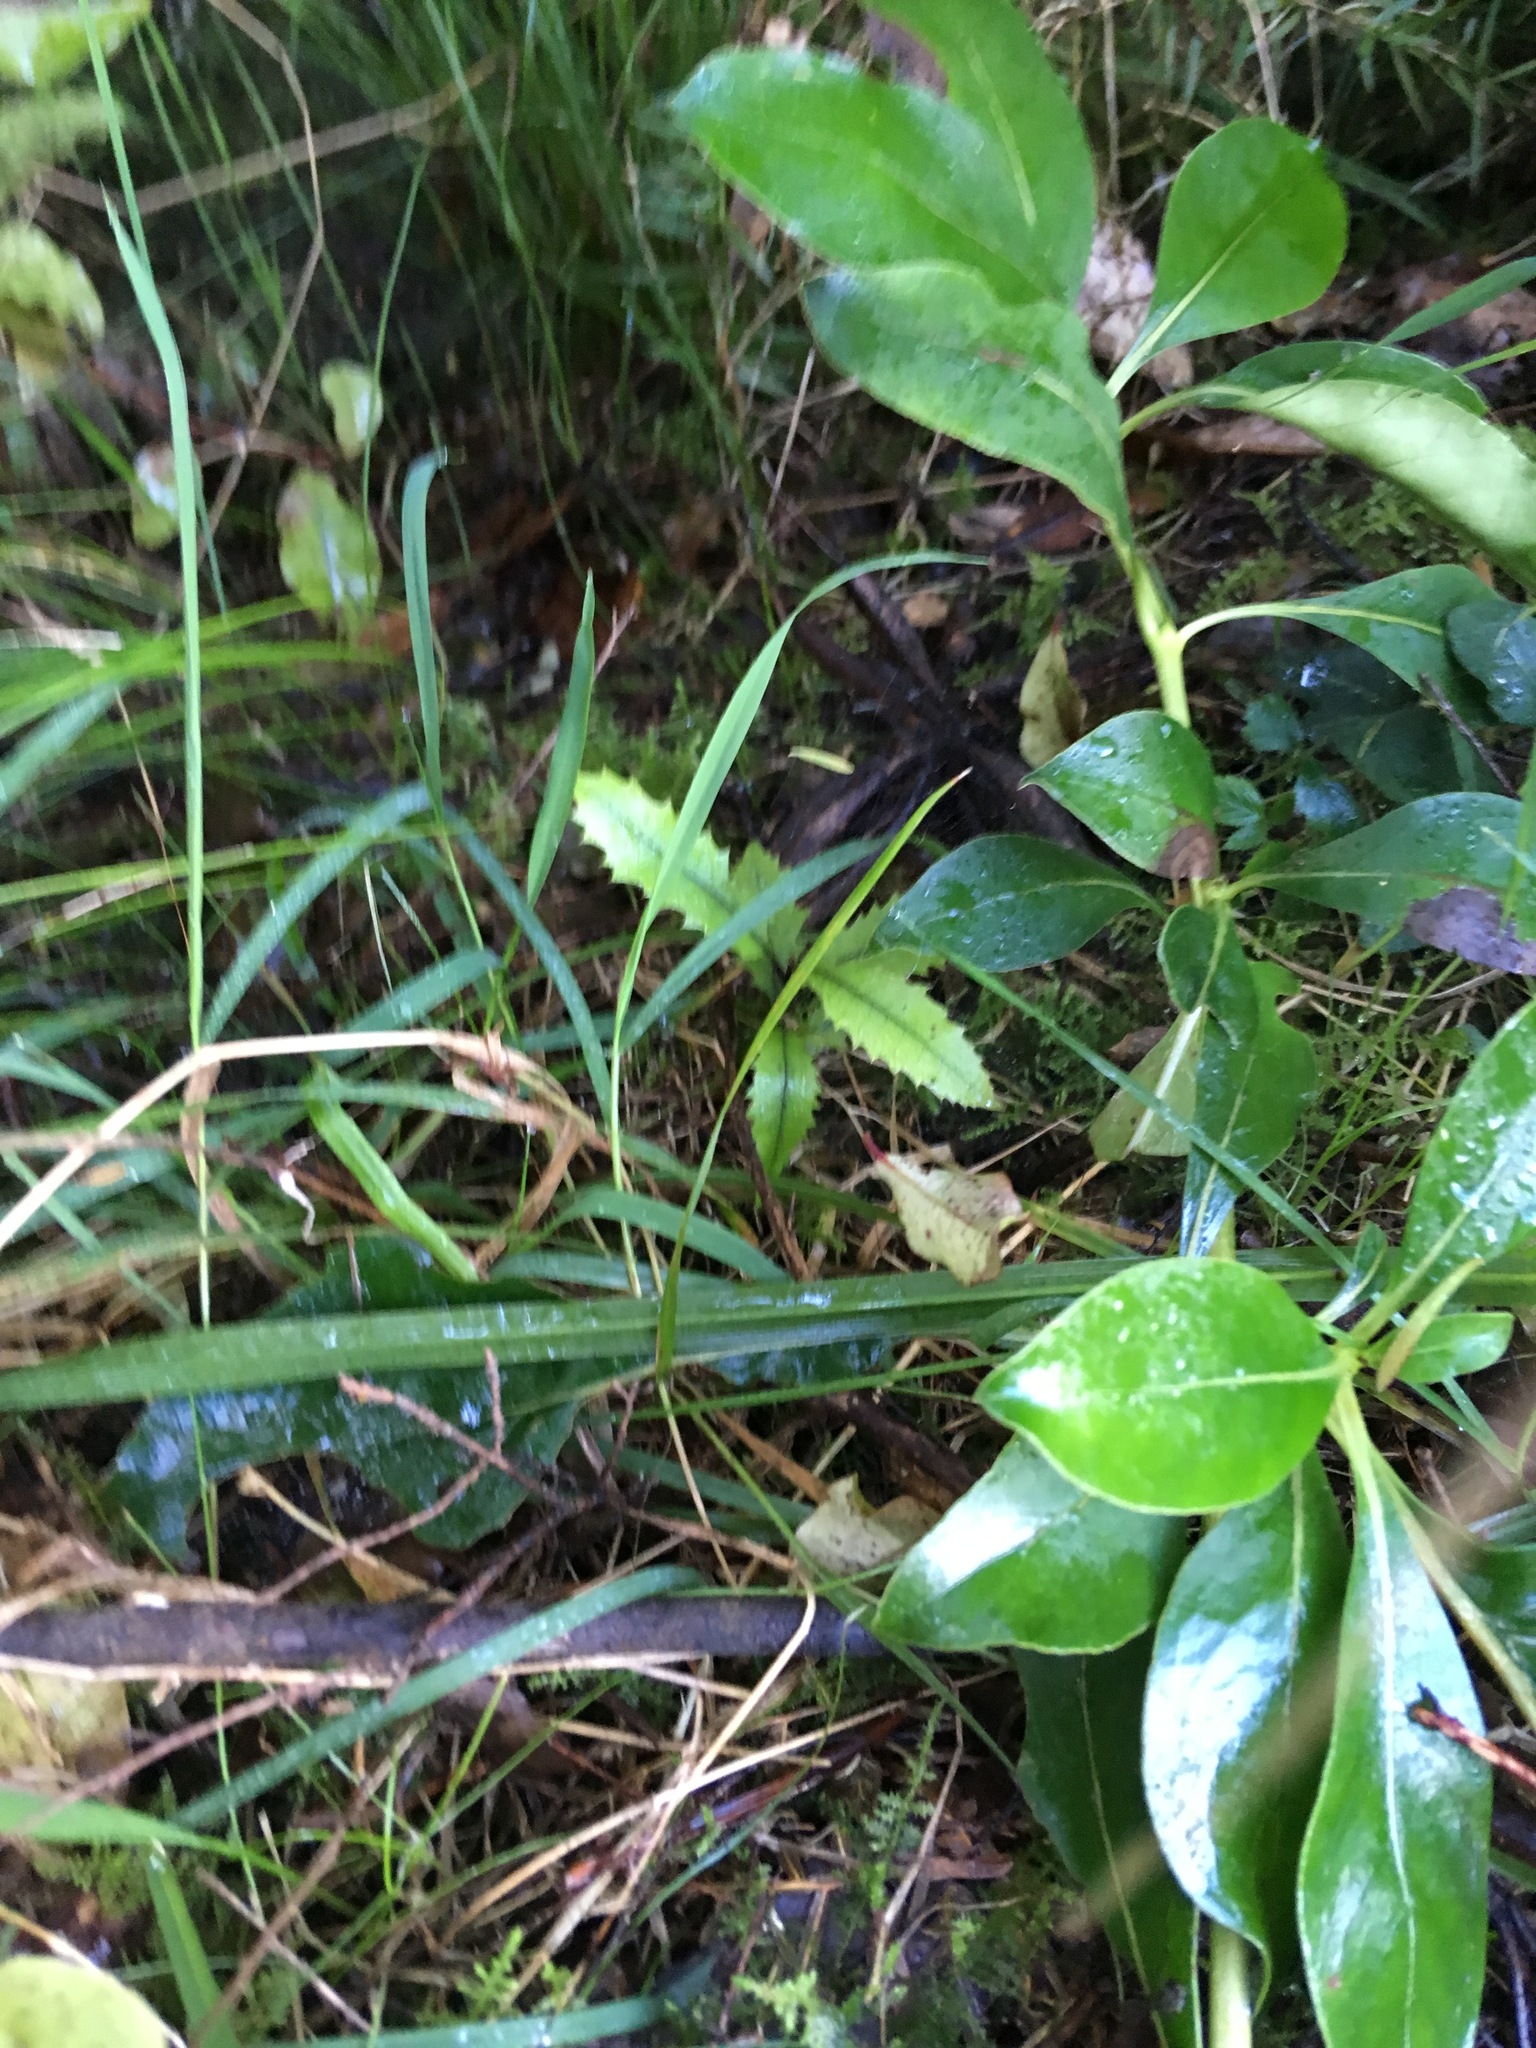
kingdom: Plantae
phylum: Tracheophyta
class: Magnoliopsida
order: Proteales
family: Proteaceae
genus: Knightia
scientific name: Knightia excelsa
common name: New zealand-honeysuckle
